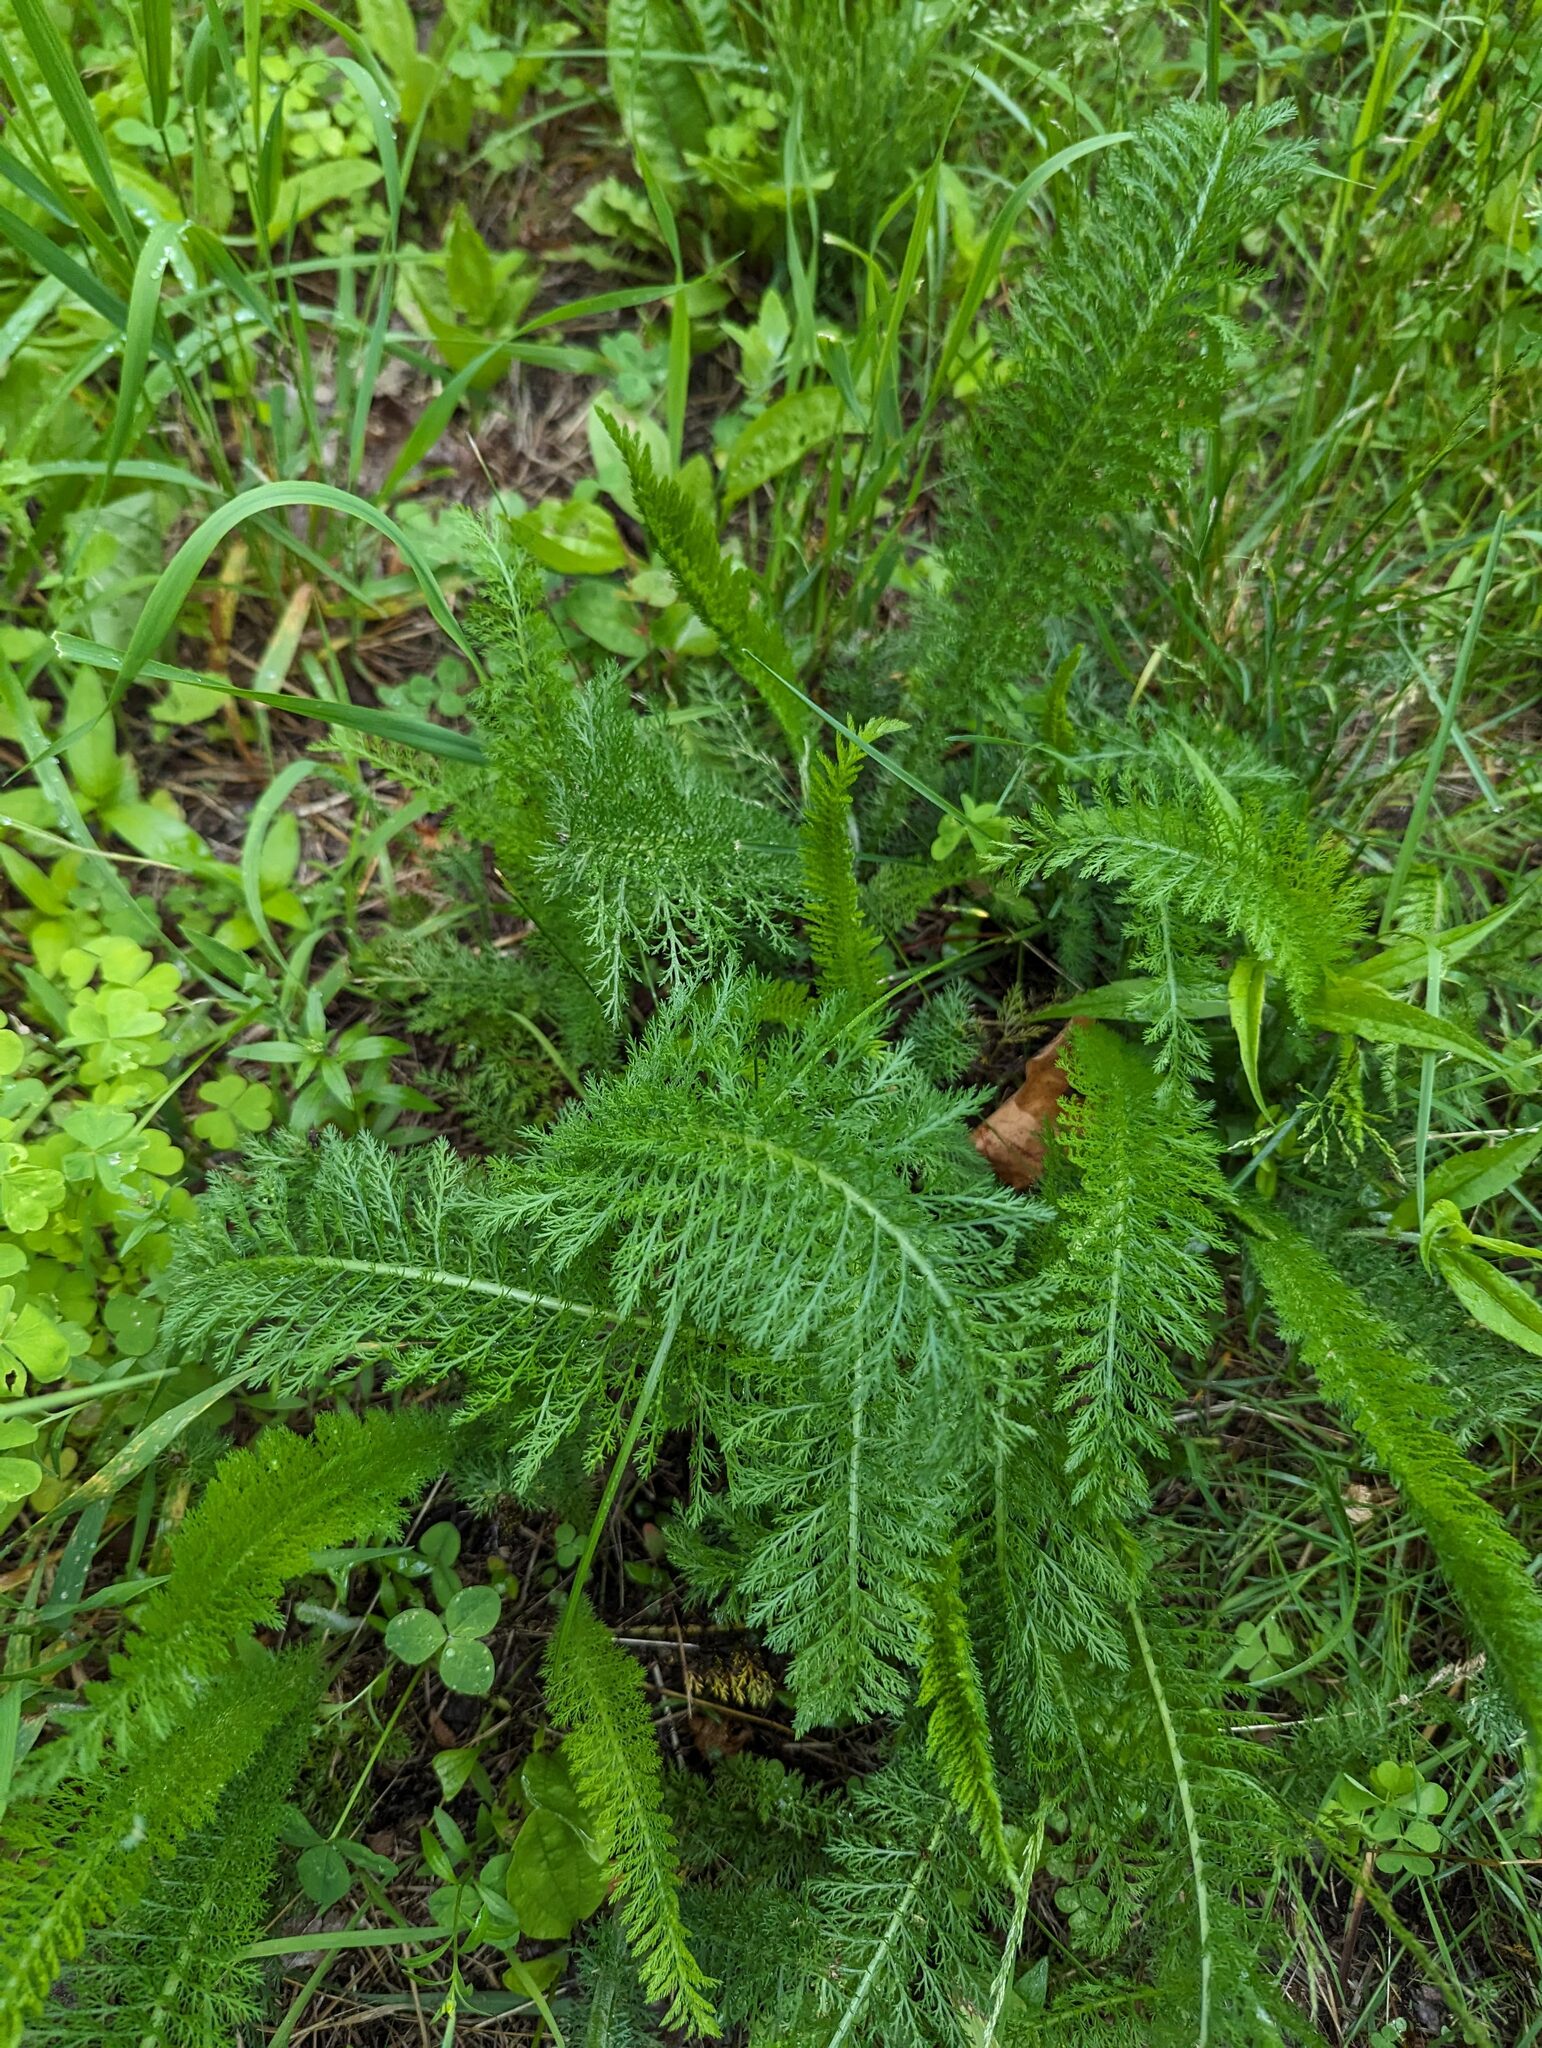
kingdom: Plantae
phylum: Tracheophyta
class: Magnoliopsida
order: Asterales
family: Asteraceae
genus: Achillea
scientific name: Achillea millefolium
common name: Yarrow
